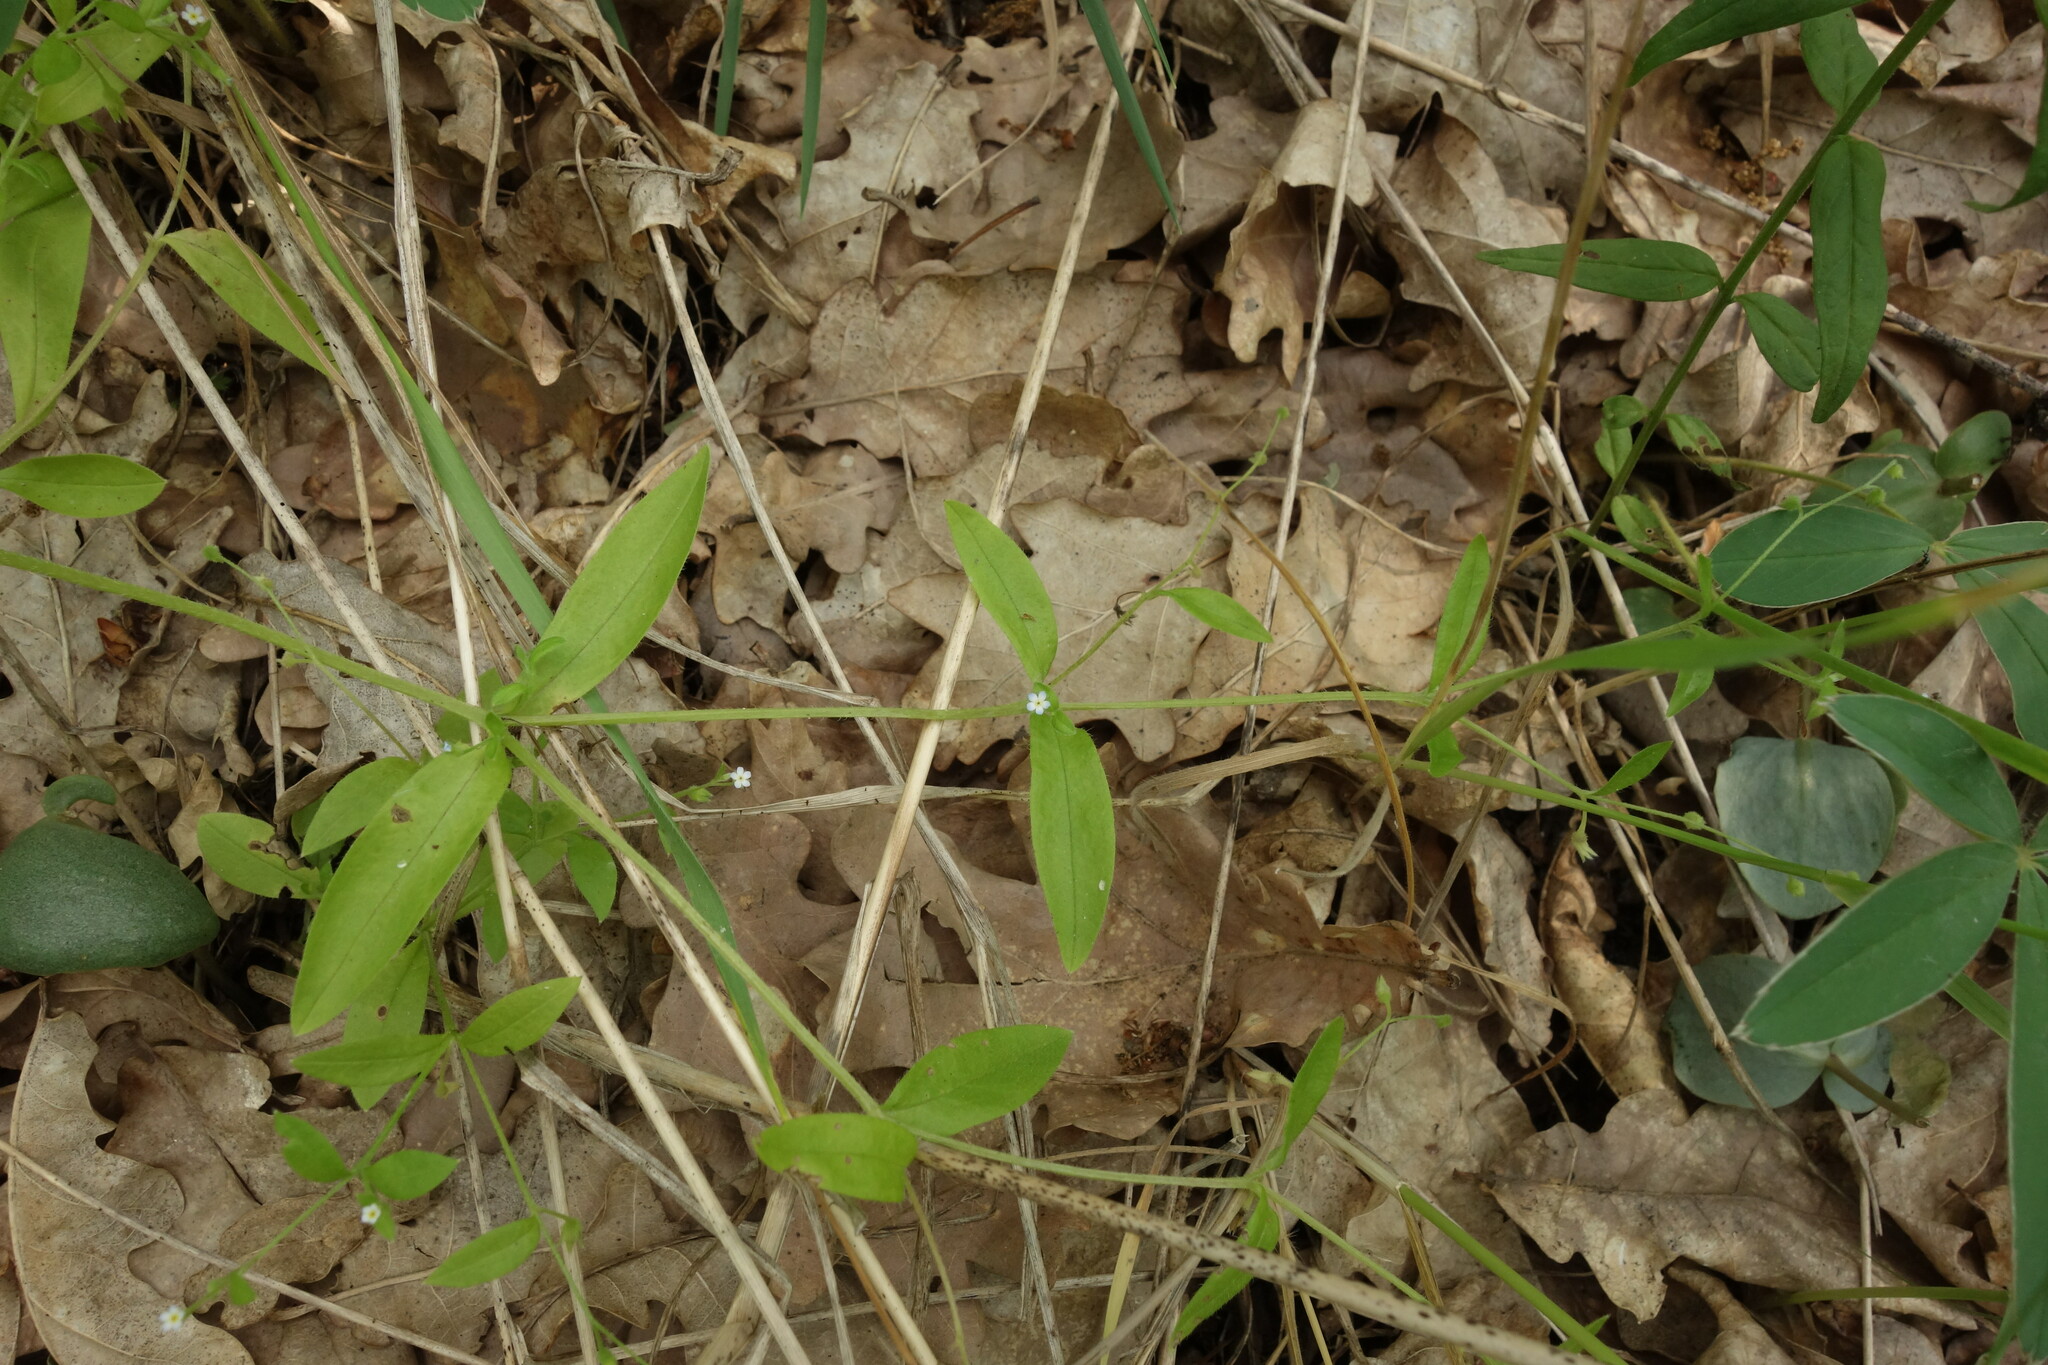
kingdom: Plantae
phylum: Tracheophyta
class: Magnoliopsida
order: Boraginales
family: Boraginaceae
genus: Myosotis
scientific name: Myosotis sparsiflora
